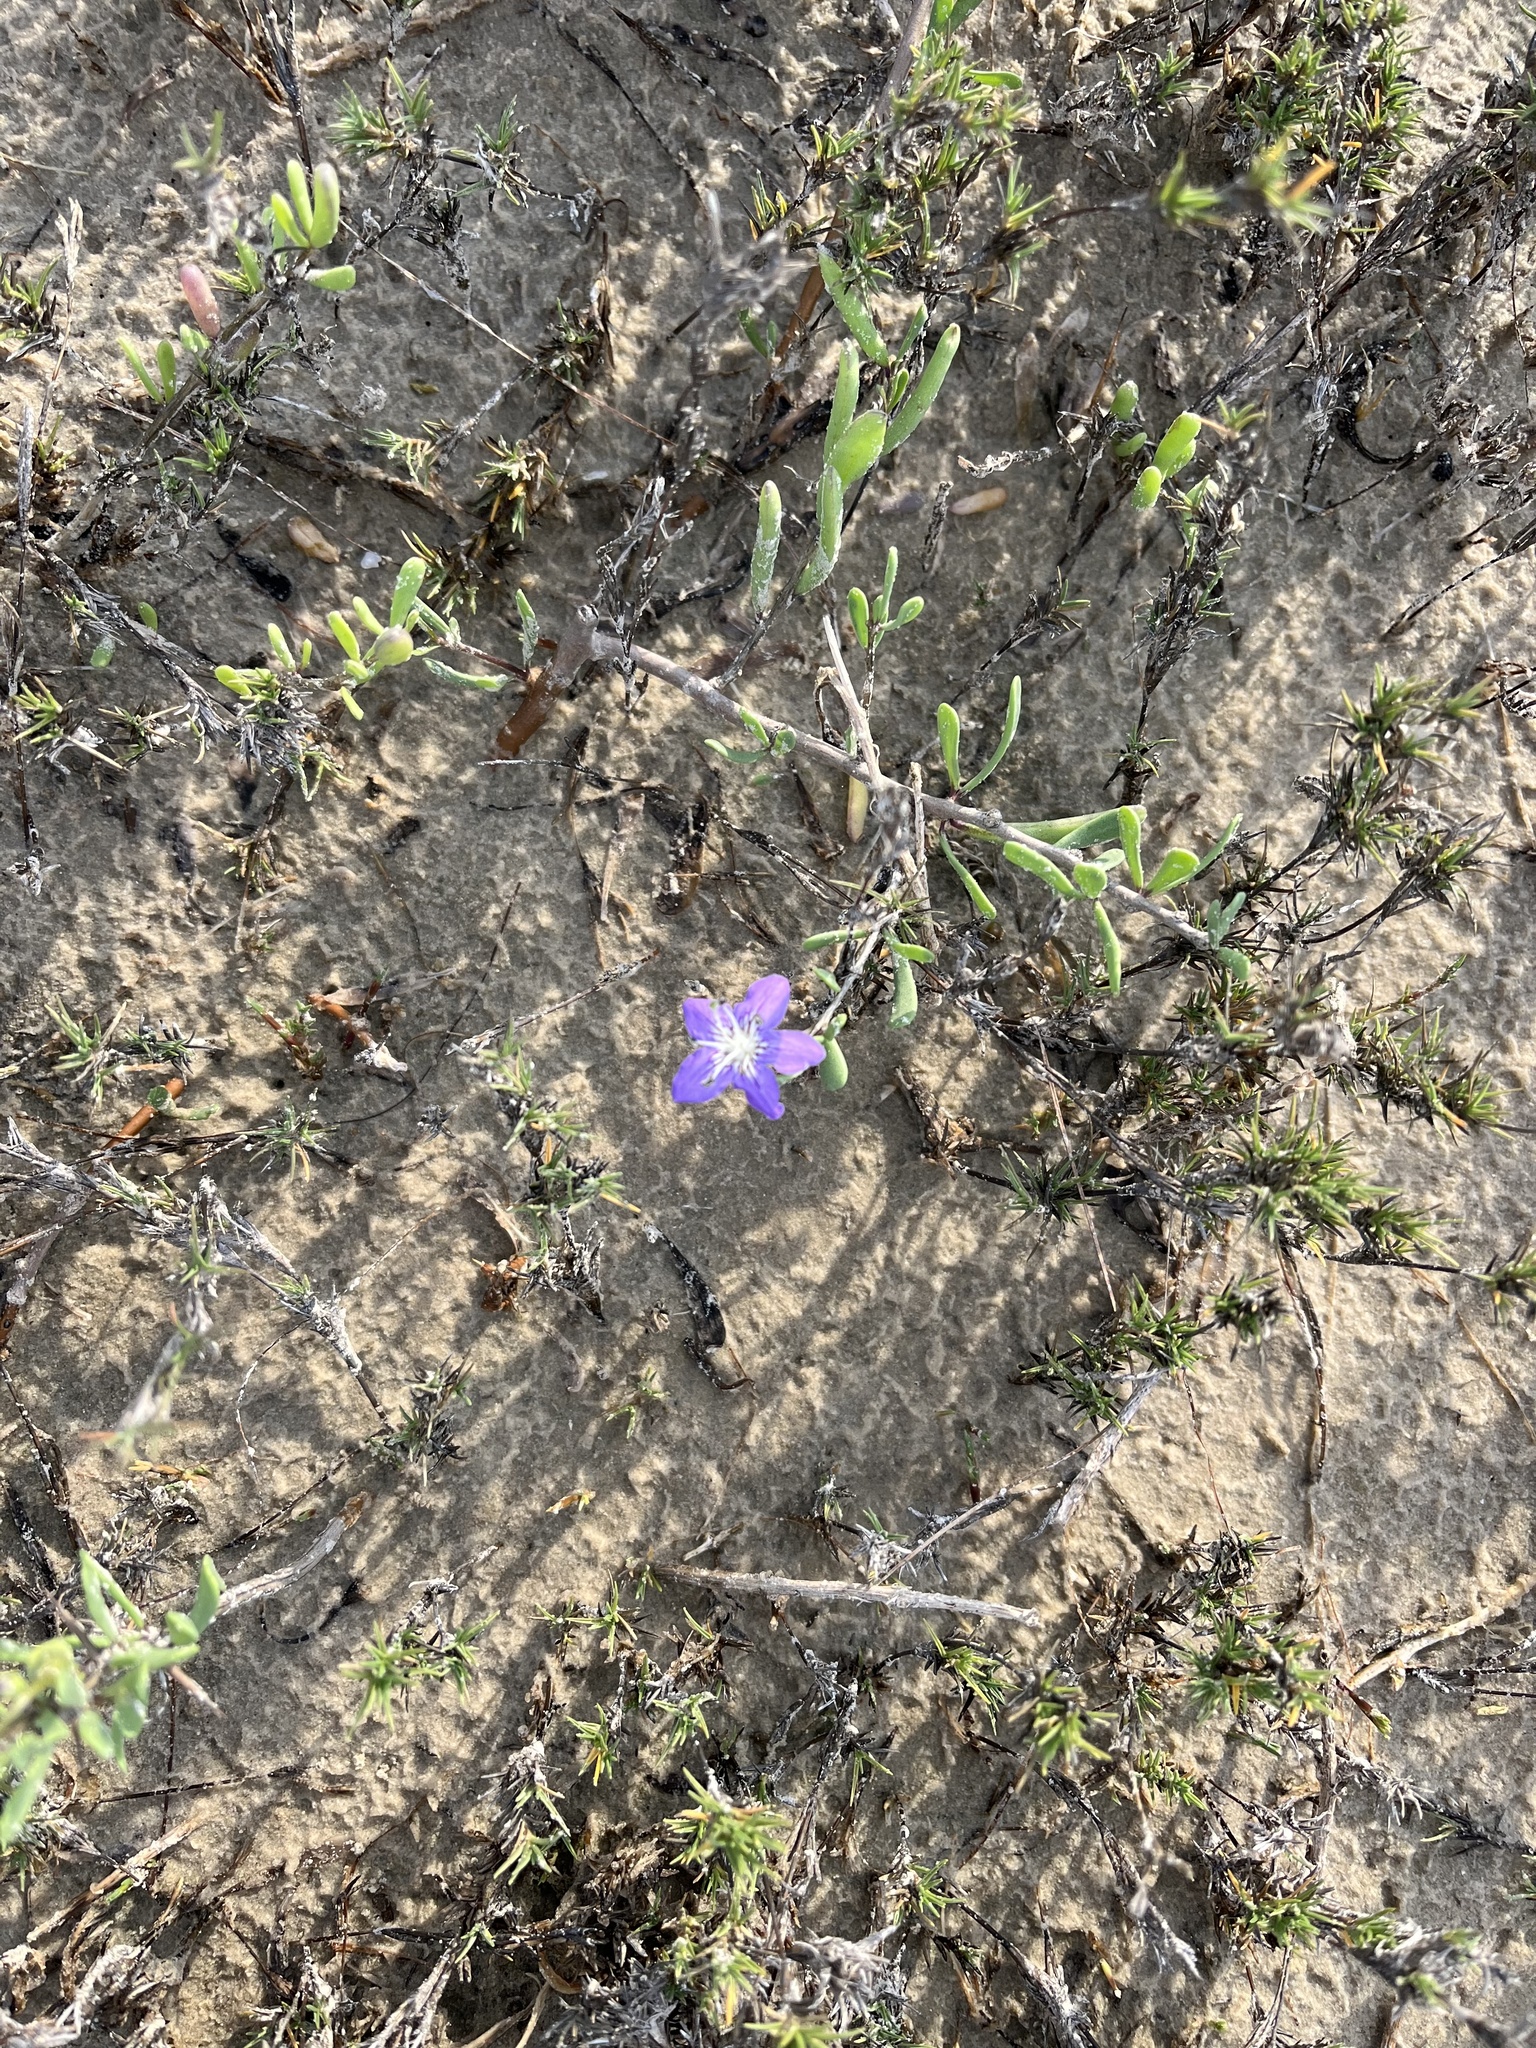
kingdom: Plantae
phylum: Tracheophyta
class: Magnoliopsida
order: Solanales
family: Solanaceae
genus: Lycium
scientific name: Lycium carolinianum
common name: Christmasberry
